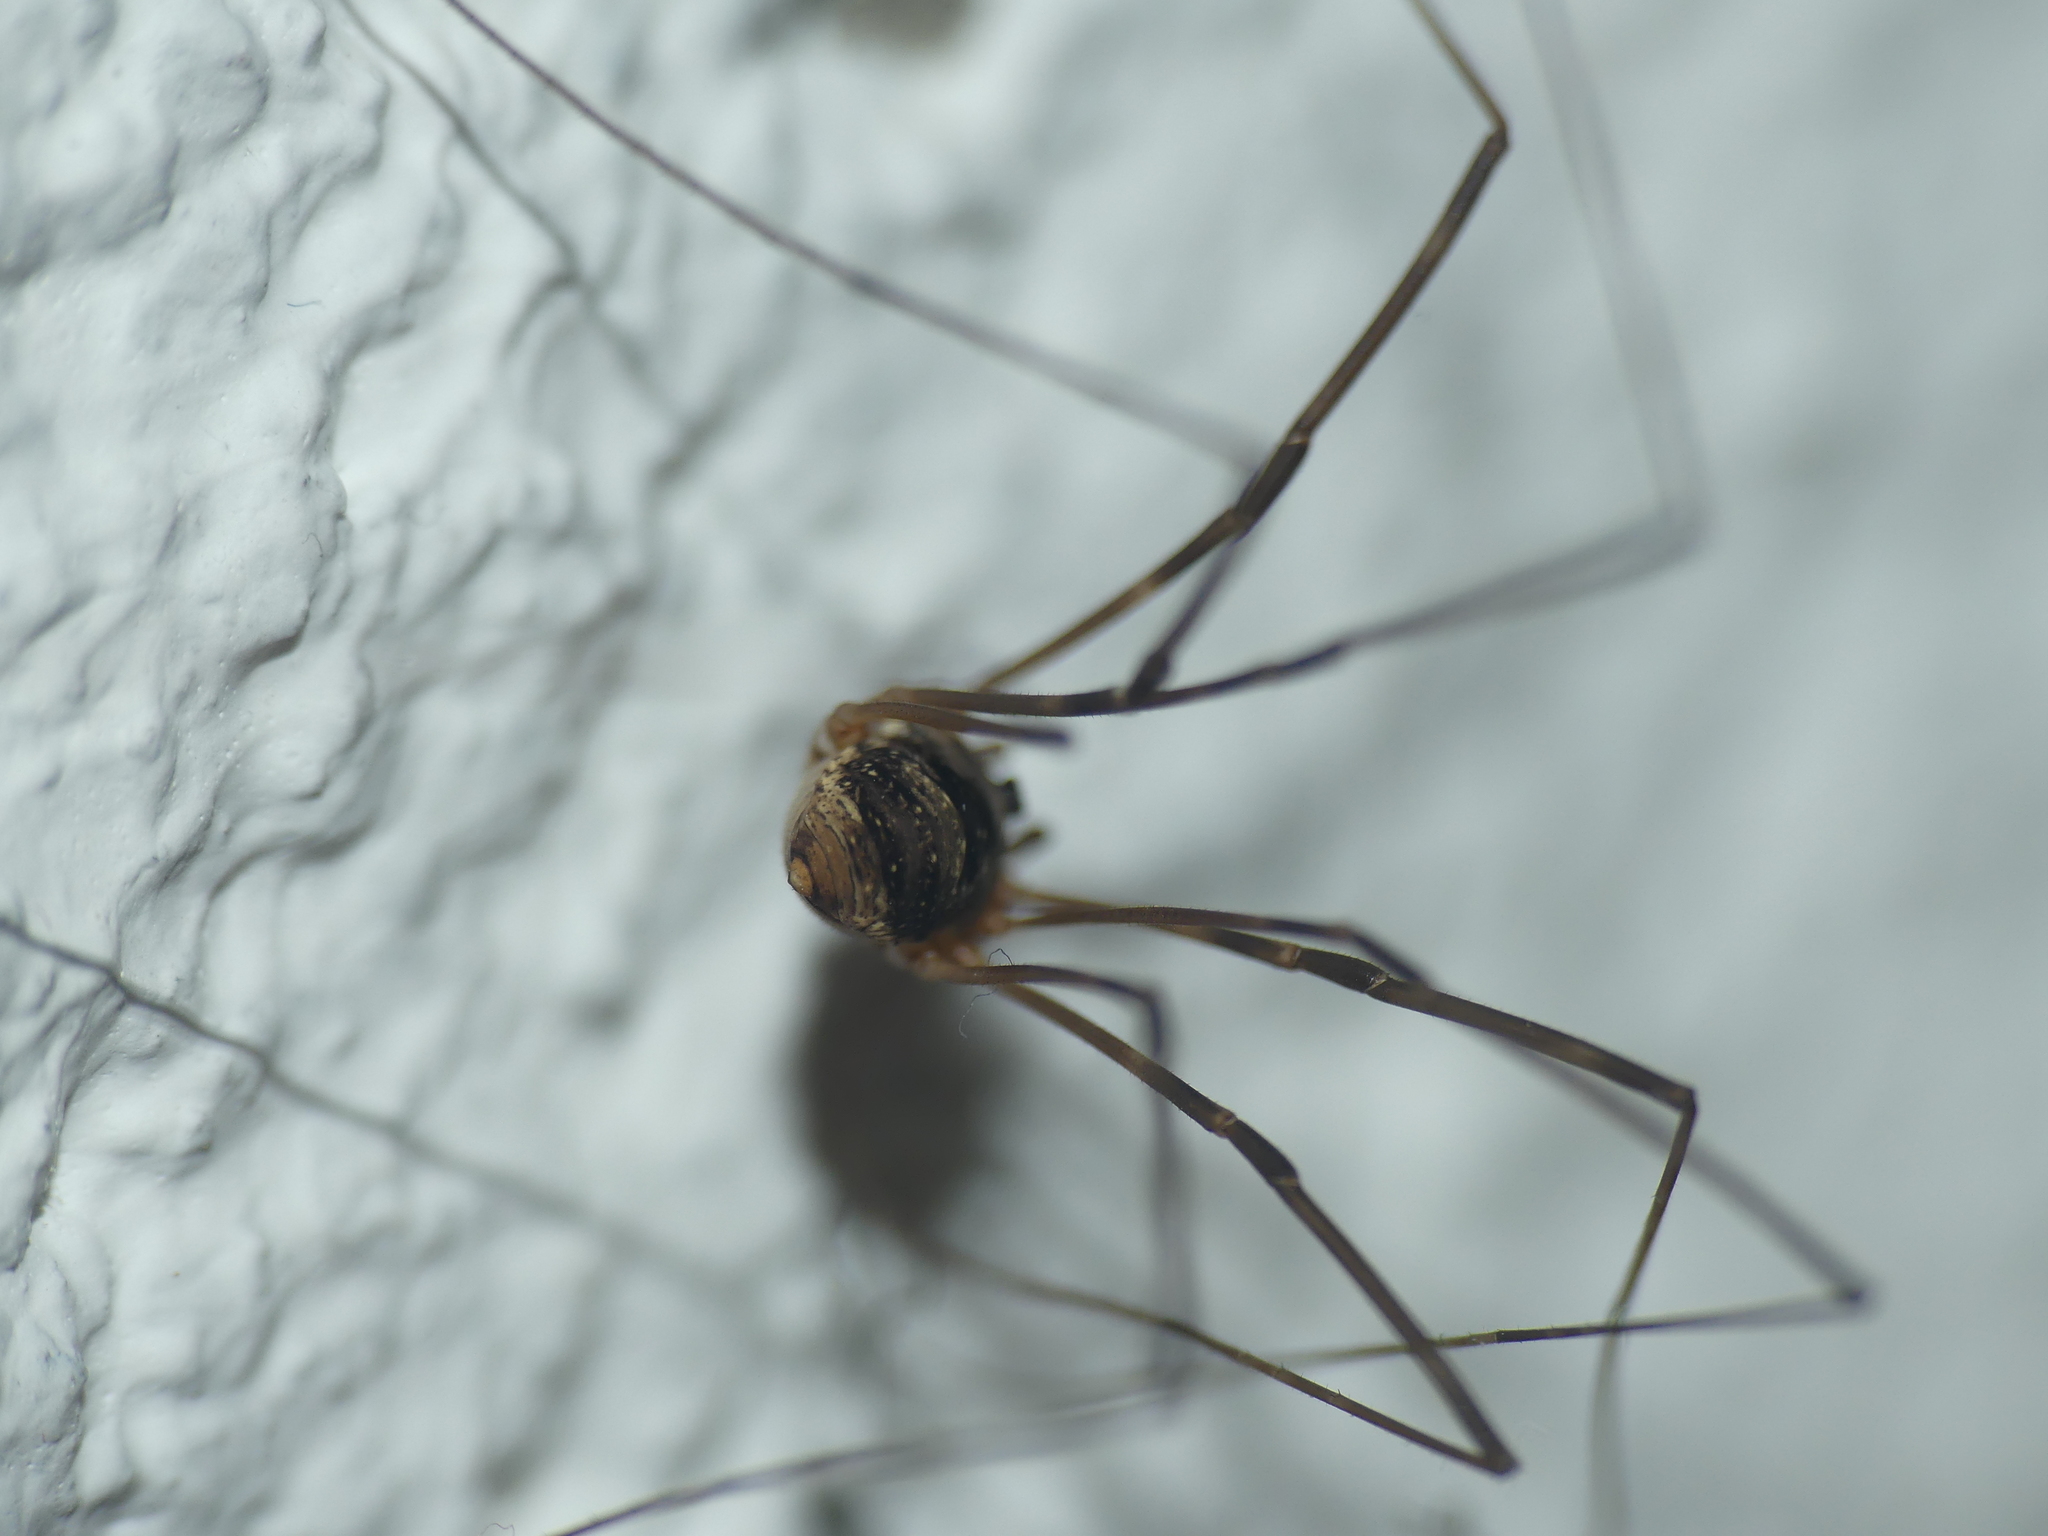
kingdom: Animalia
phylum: Arthropoda
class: Arachnida
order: Opiliones
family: Phalangiidae
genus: Amilenus
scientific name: Amilenus aurantiacus
